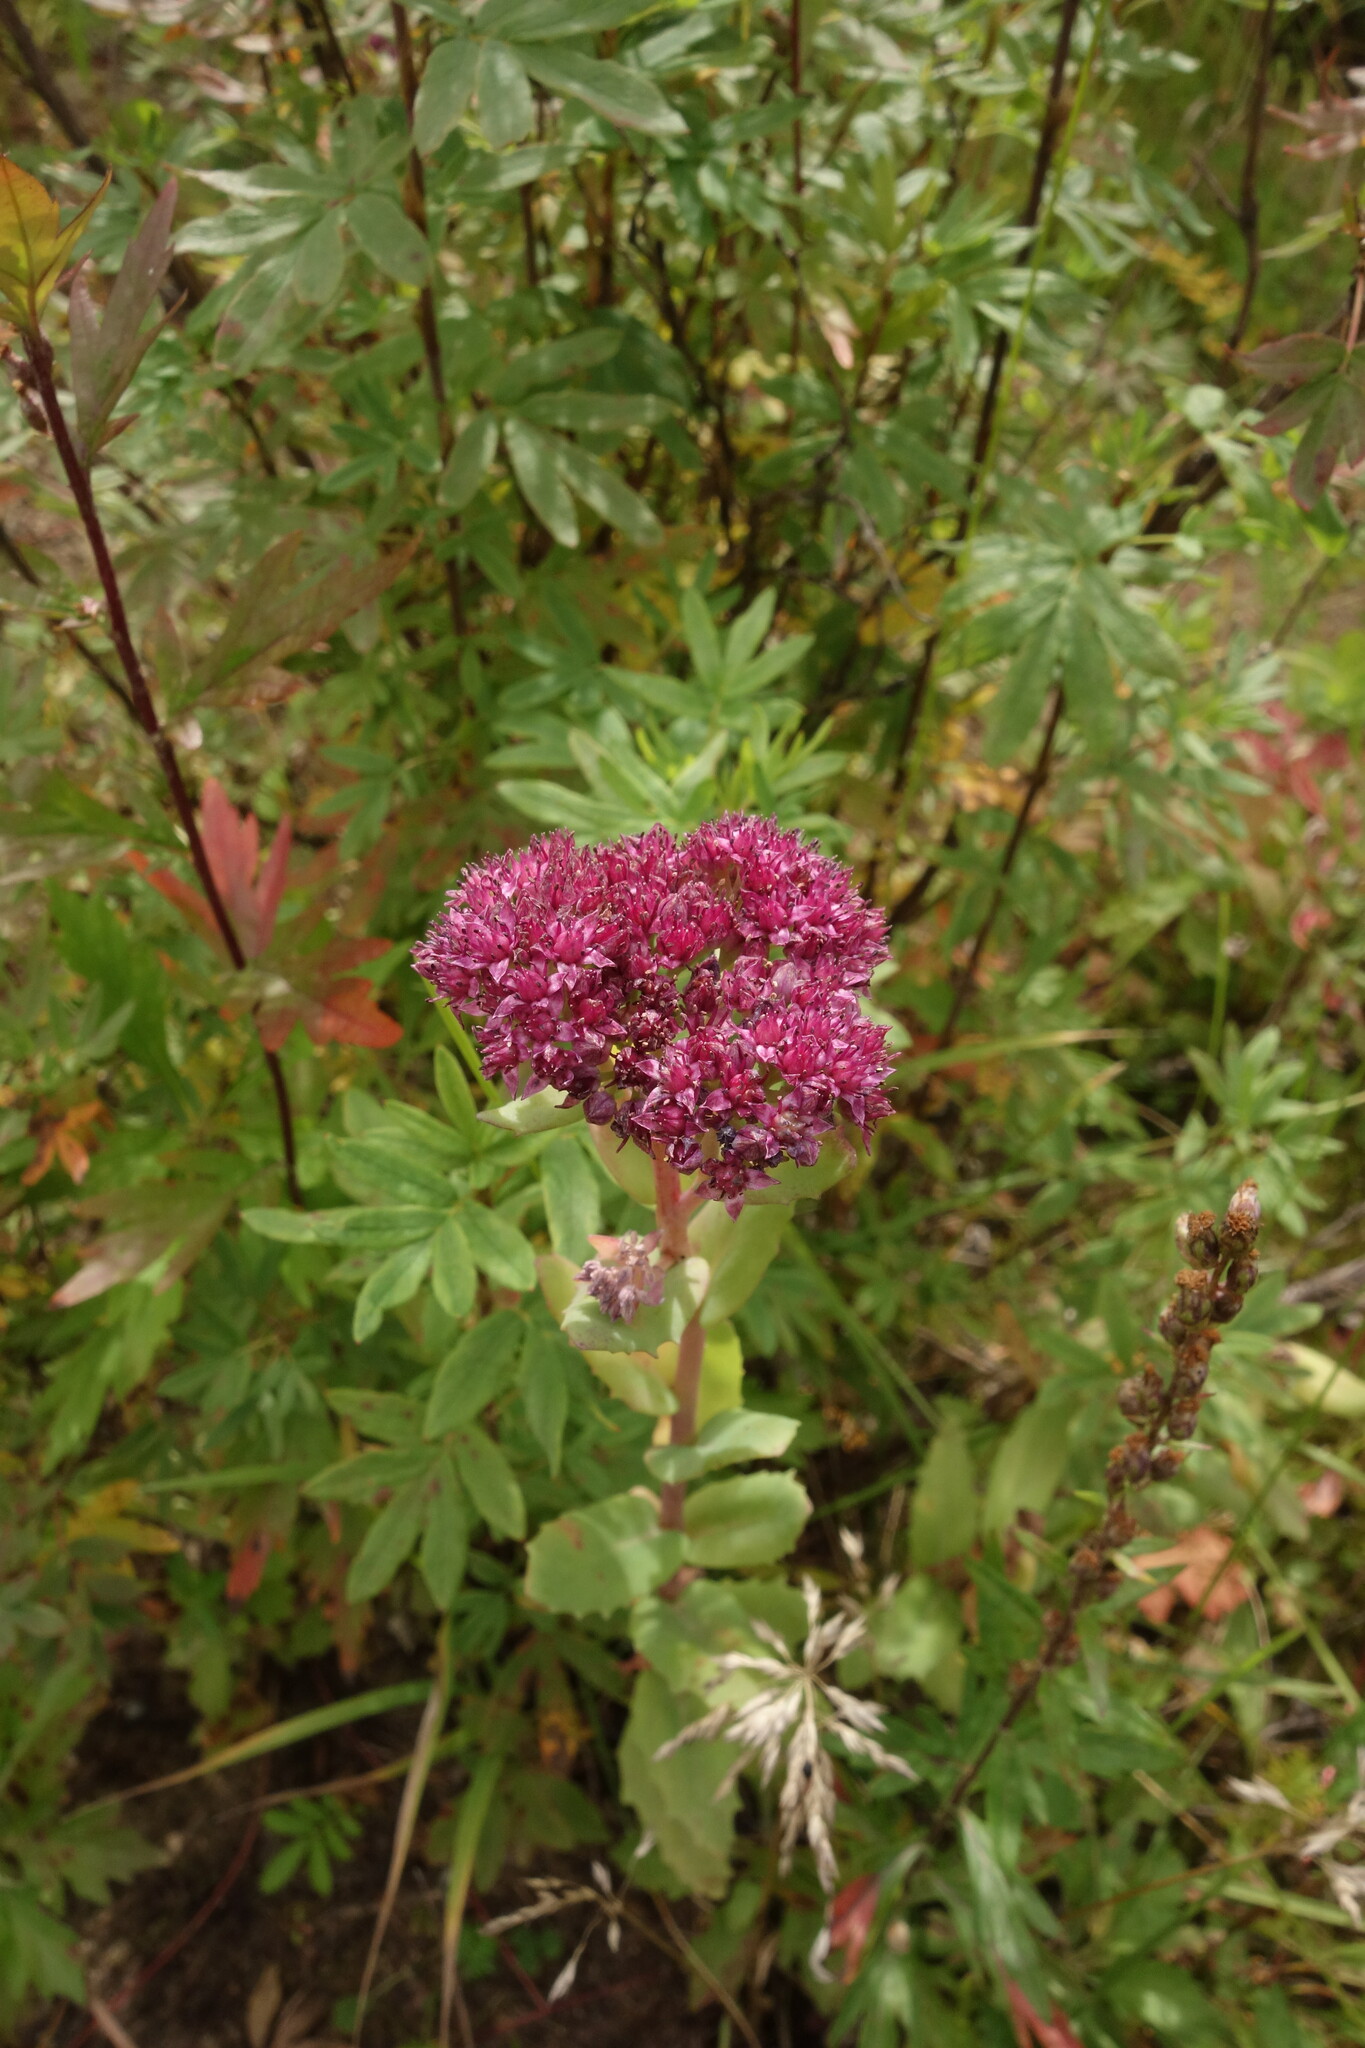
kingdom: Plantae
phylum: Tracheophyta
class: Magnoliopsida
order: Saxifragales
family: Crassulaceae
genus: Hylotelephium
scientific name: Hylotelephium telephium
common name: Live-forever
